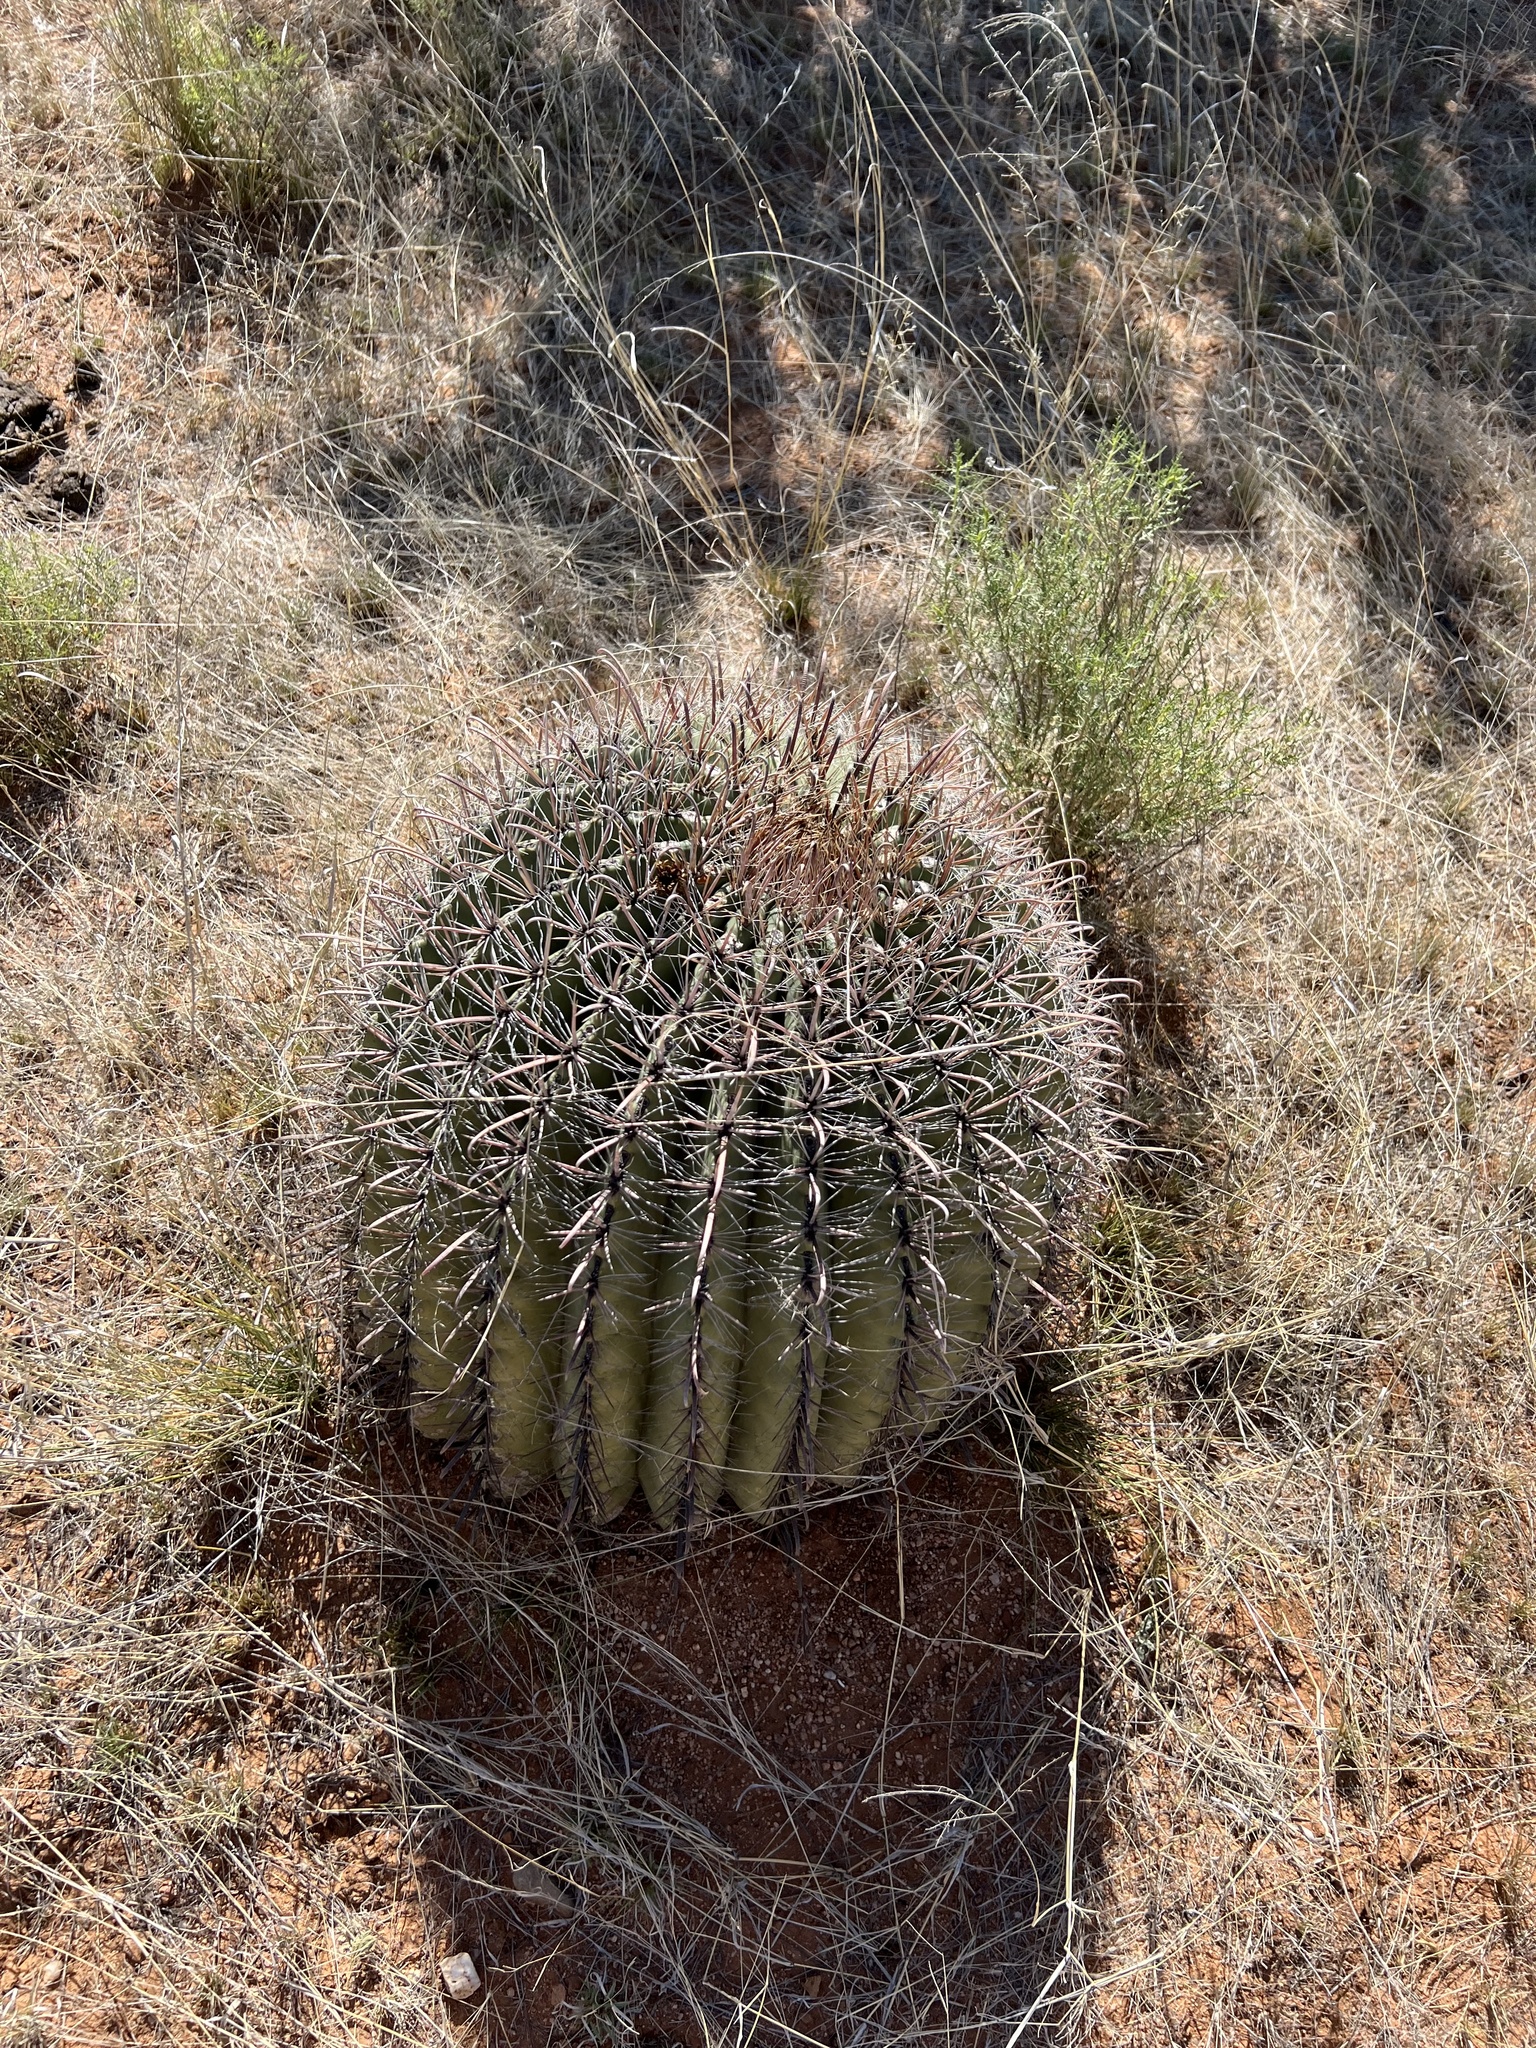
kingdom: Plantae
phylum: Tracheophyta
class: Magnoliopsida
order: Caryophyllales
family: Cactaceae
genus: Ferocactus
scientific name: Ferocactus wislizeni
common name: Candy barrel cactus
